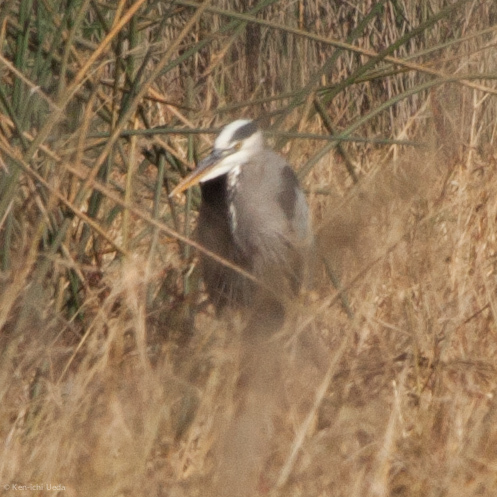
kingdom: Animalia
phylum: Chordata
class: Aves
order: Pelecaniformes
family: Ardeidae
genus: Ardea
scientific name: Ardea herodias
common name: Great blue heron
